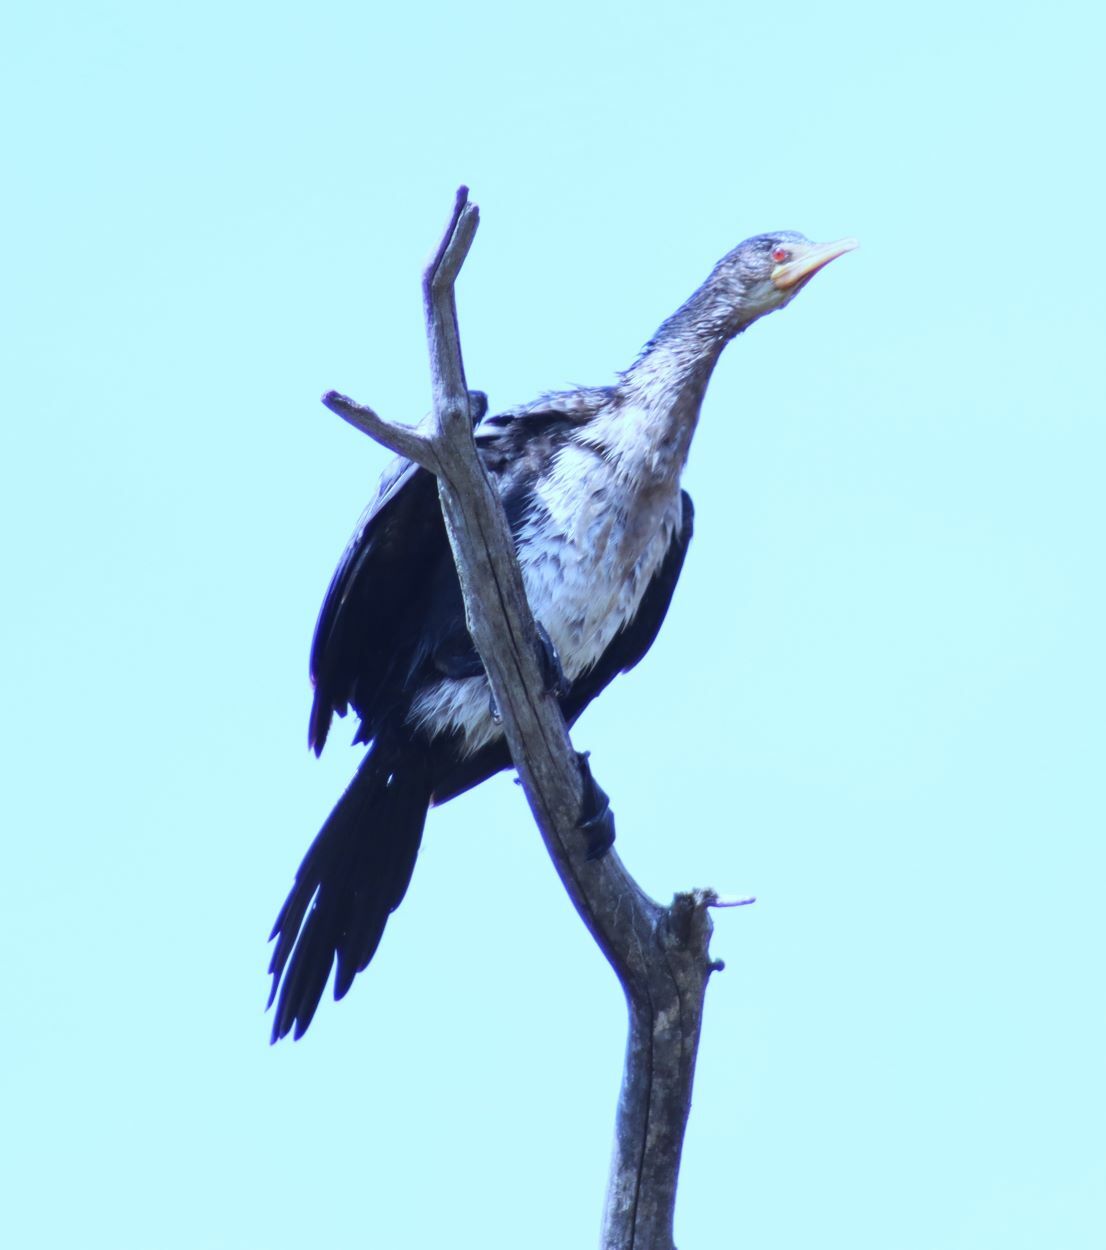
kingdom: Animalia
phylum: Chordata
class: Aves
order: Suliformes
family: Phalacrocoracidae
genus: Microcarbo
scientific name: Microcarbo africanus
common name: Long-tailed cormorant
